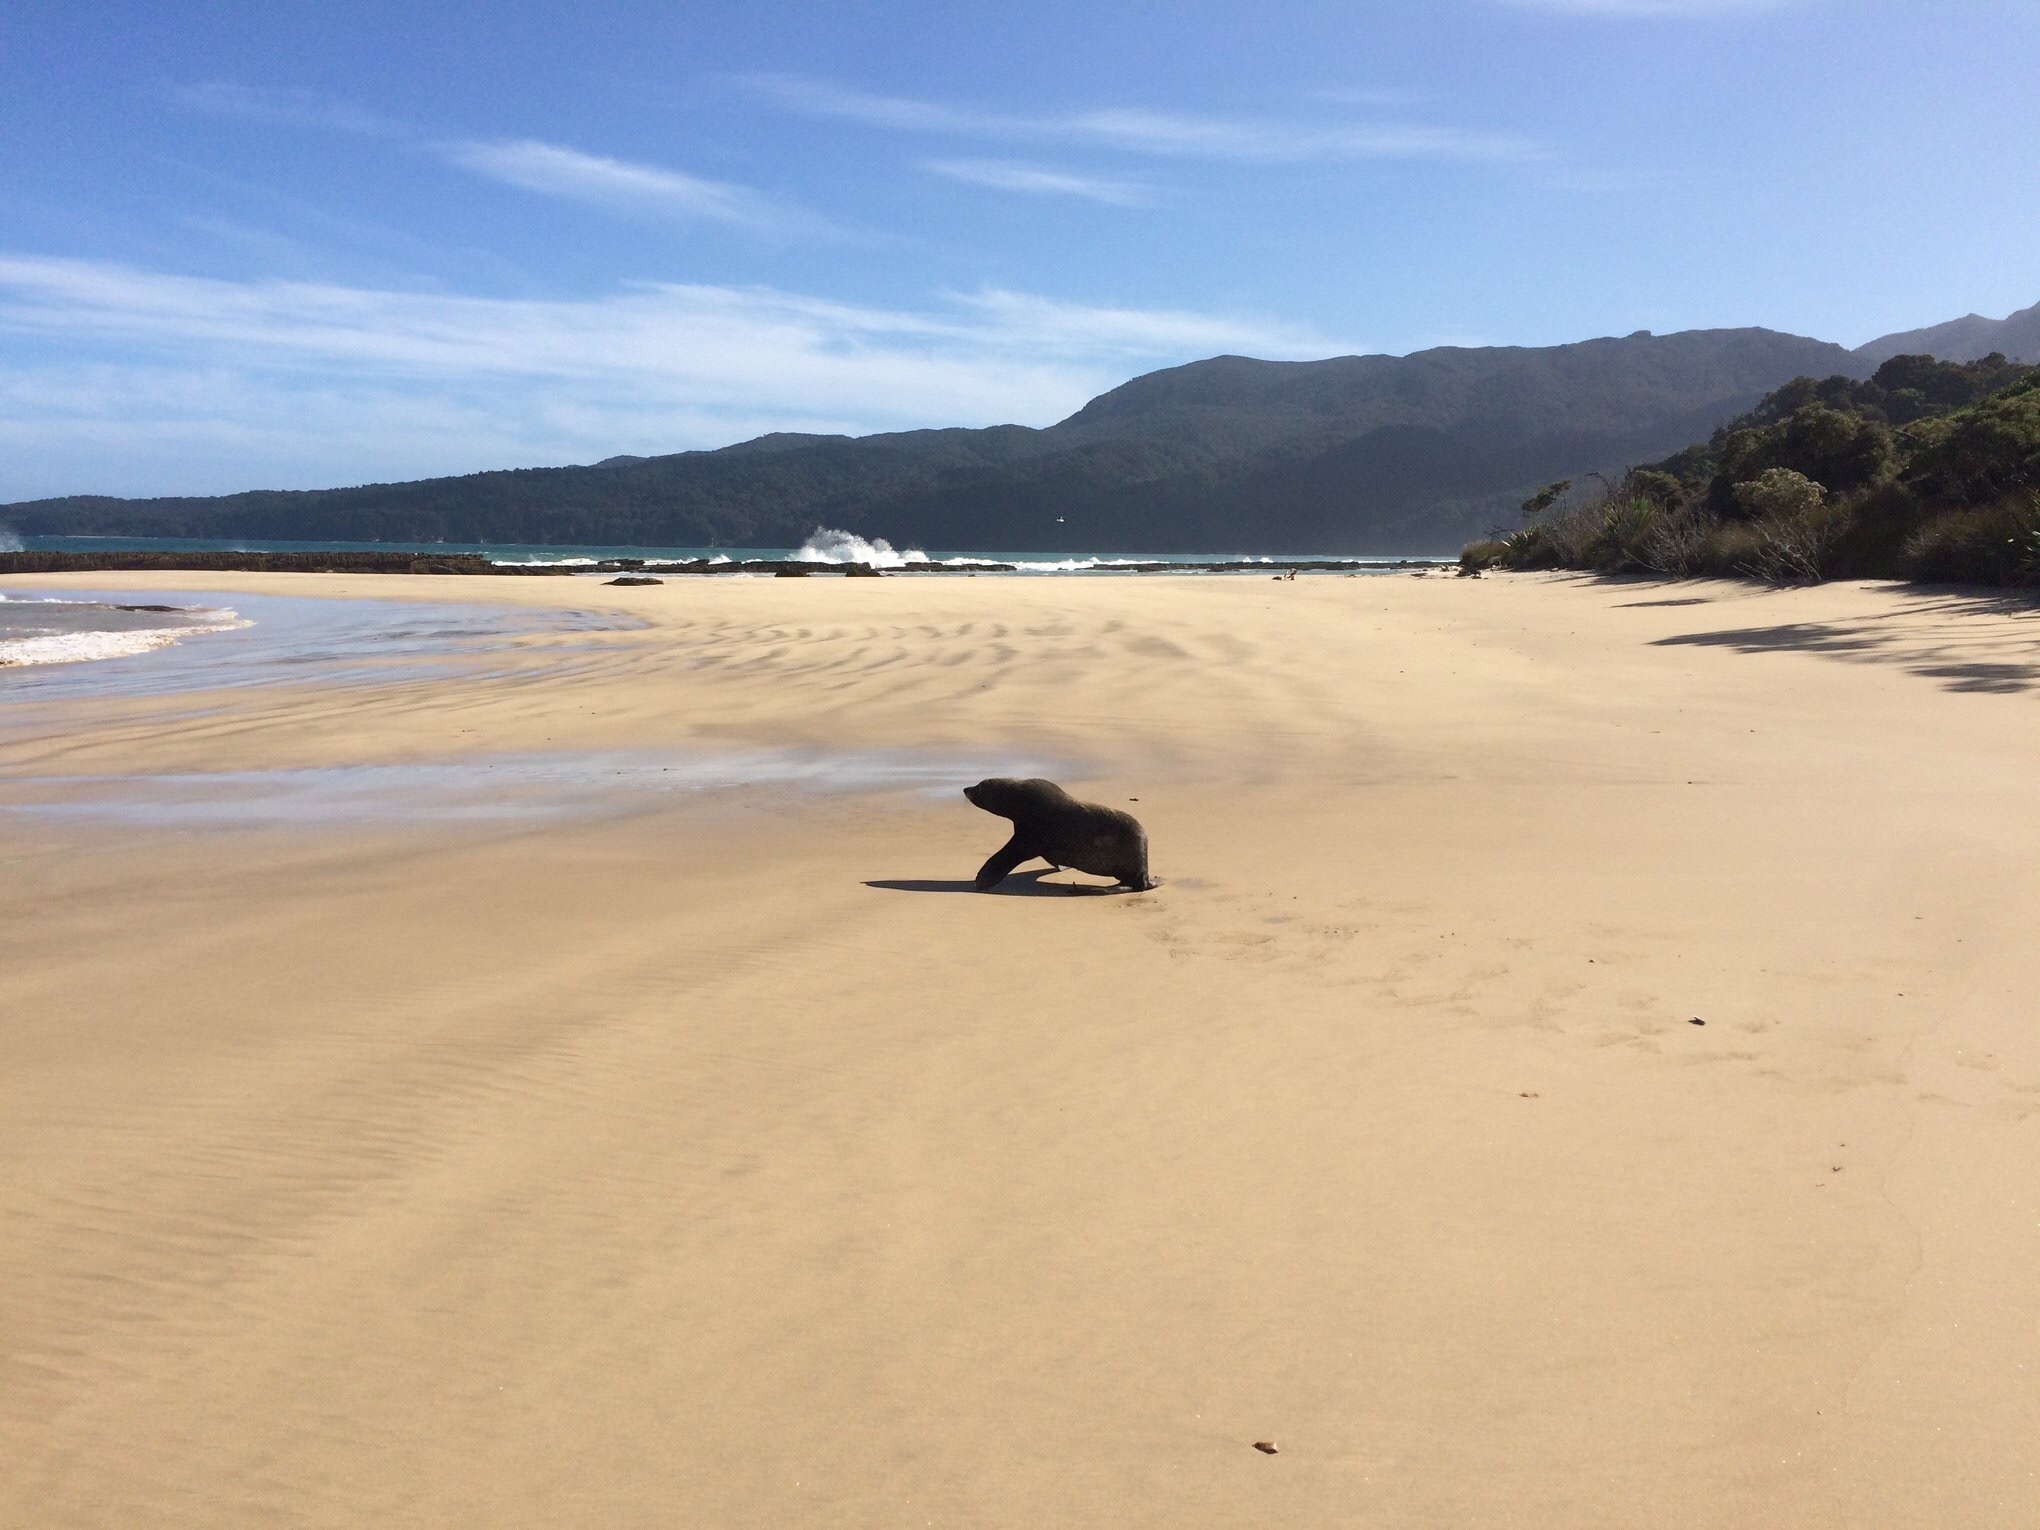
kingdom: Animalia
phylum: Chordata
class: Mammalia
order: Carnivora
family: Otariidae
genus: Arctocephalus
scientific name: Arctocephalus forsteri
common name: New zealand fur seal
